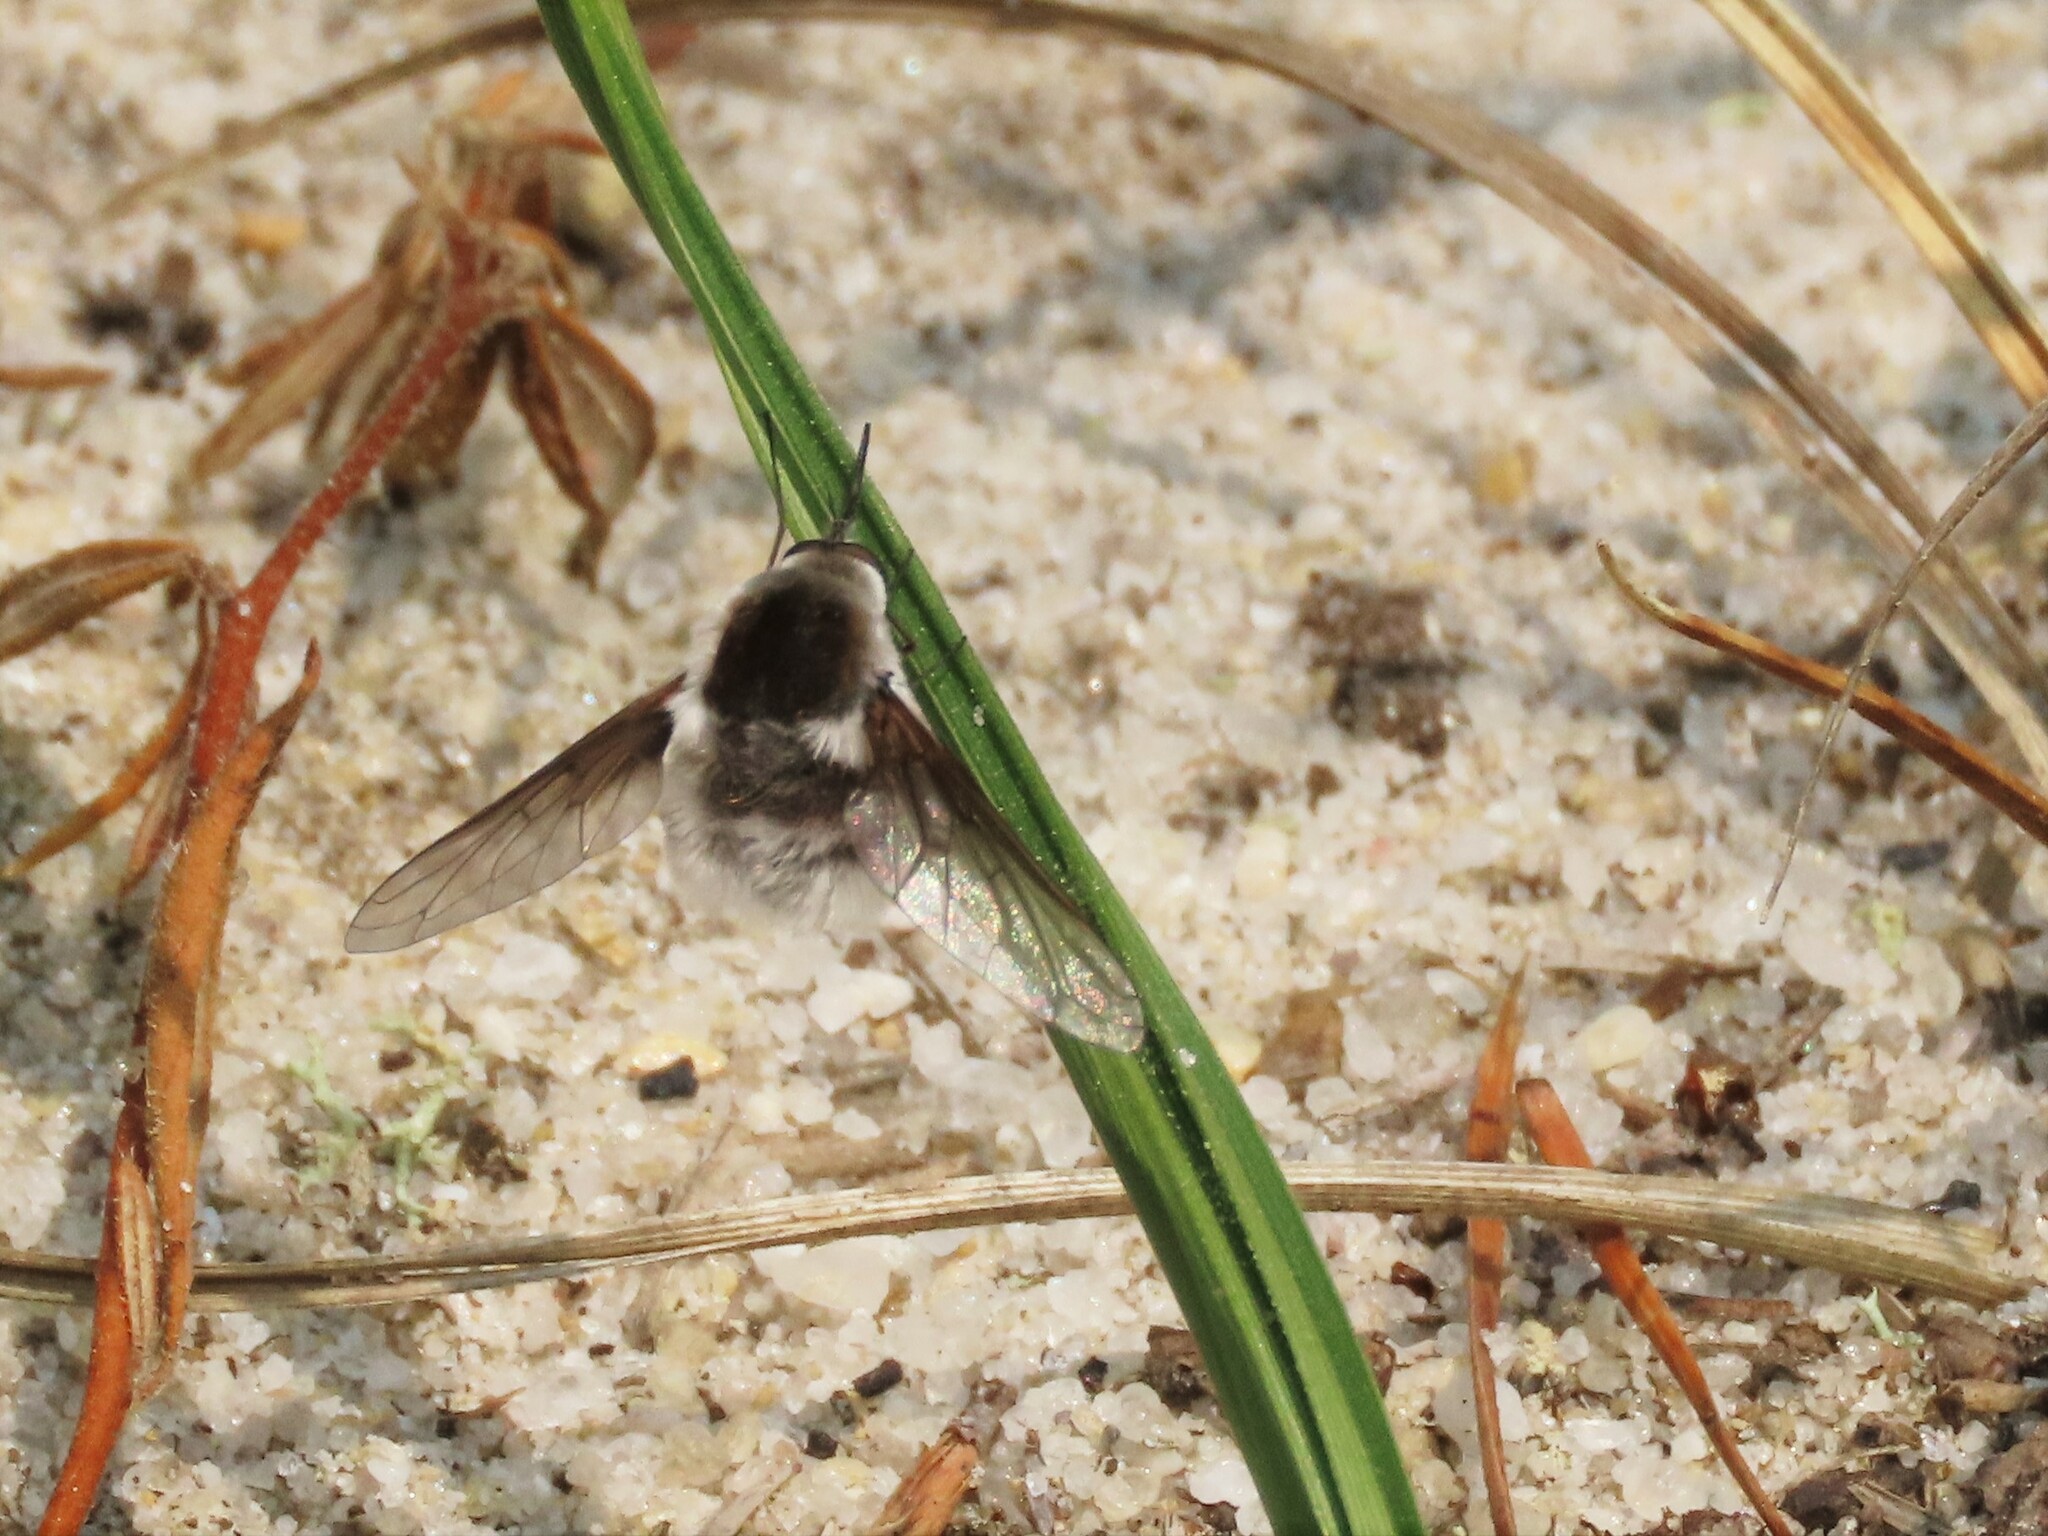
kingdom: Animalia
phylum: Arthropoda
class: Insecta
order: Diptera
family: Bombyliidae
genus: Bombylius
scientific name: Bombylius incanus
